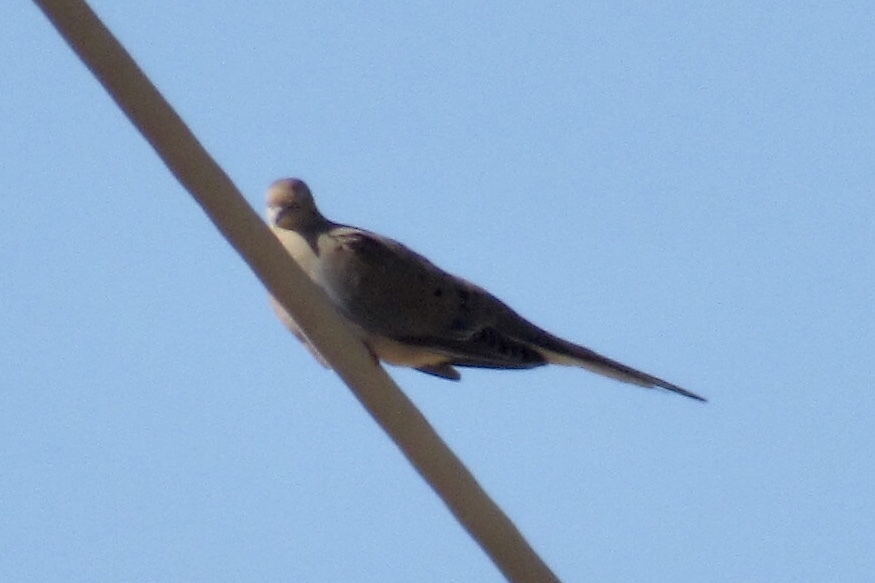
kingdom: Animalia
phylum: Chordata
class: Aves
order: Columbiformes
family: Columbidae
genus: Zenaida
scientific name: Zenaida macroura
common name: Mourning dove
